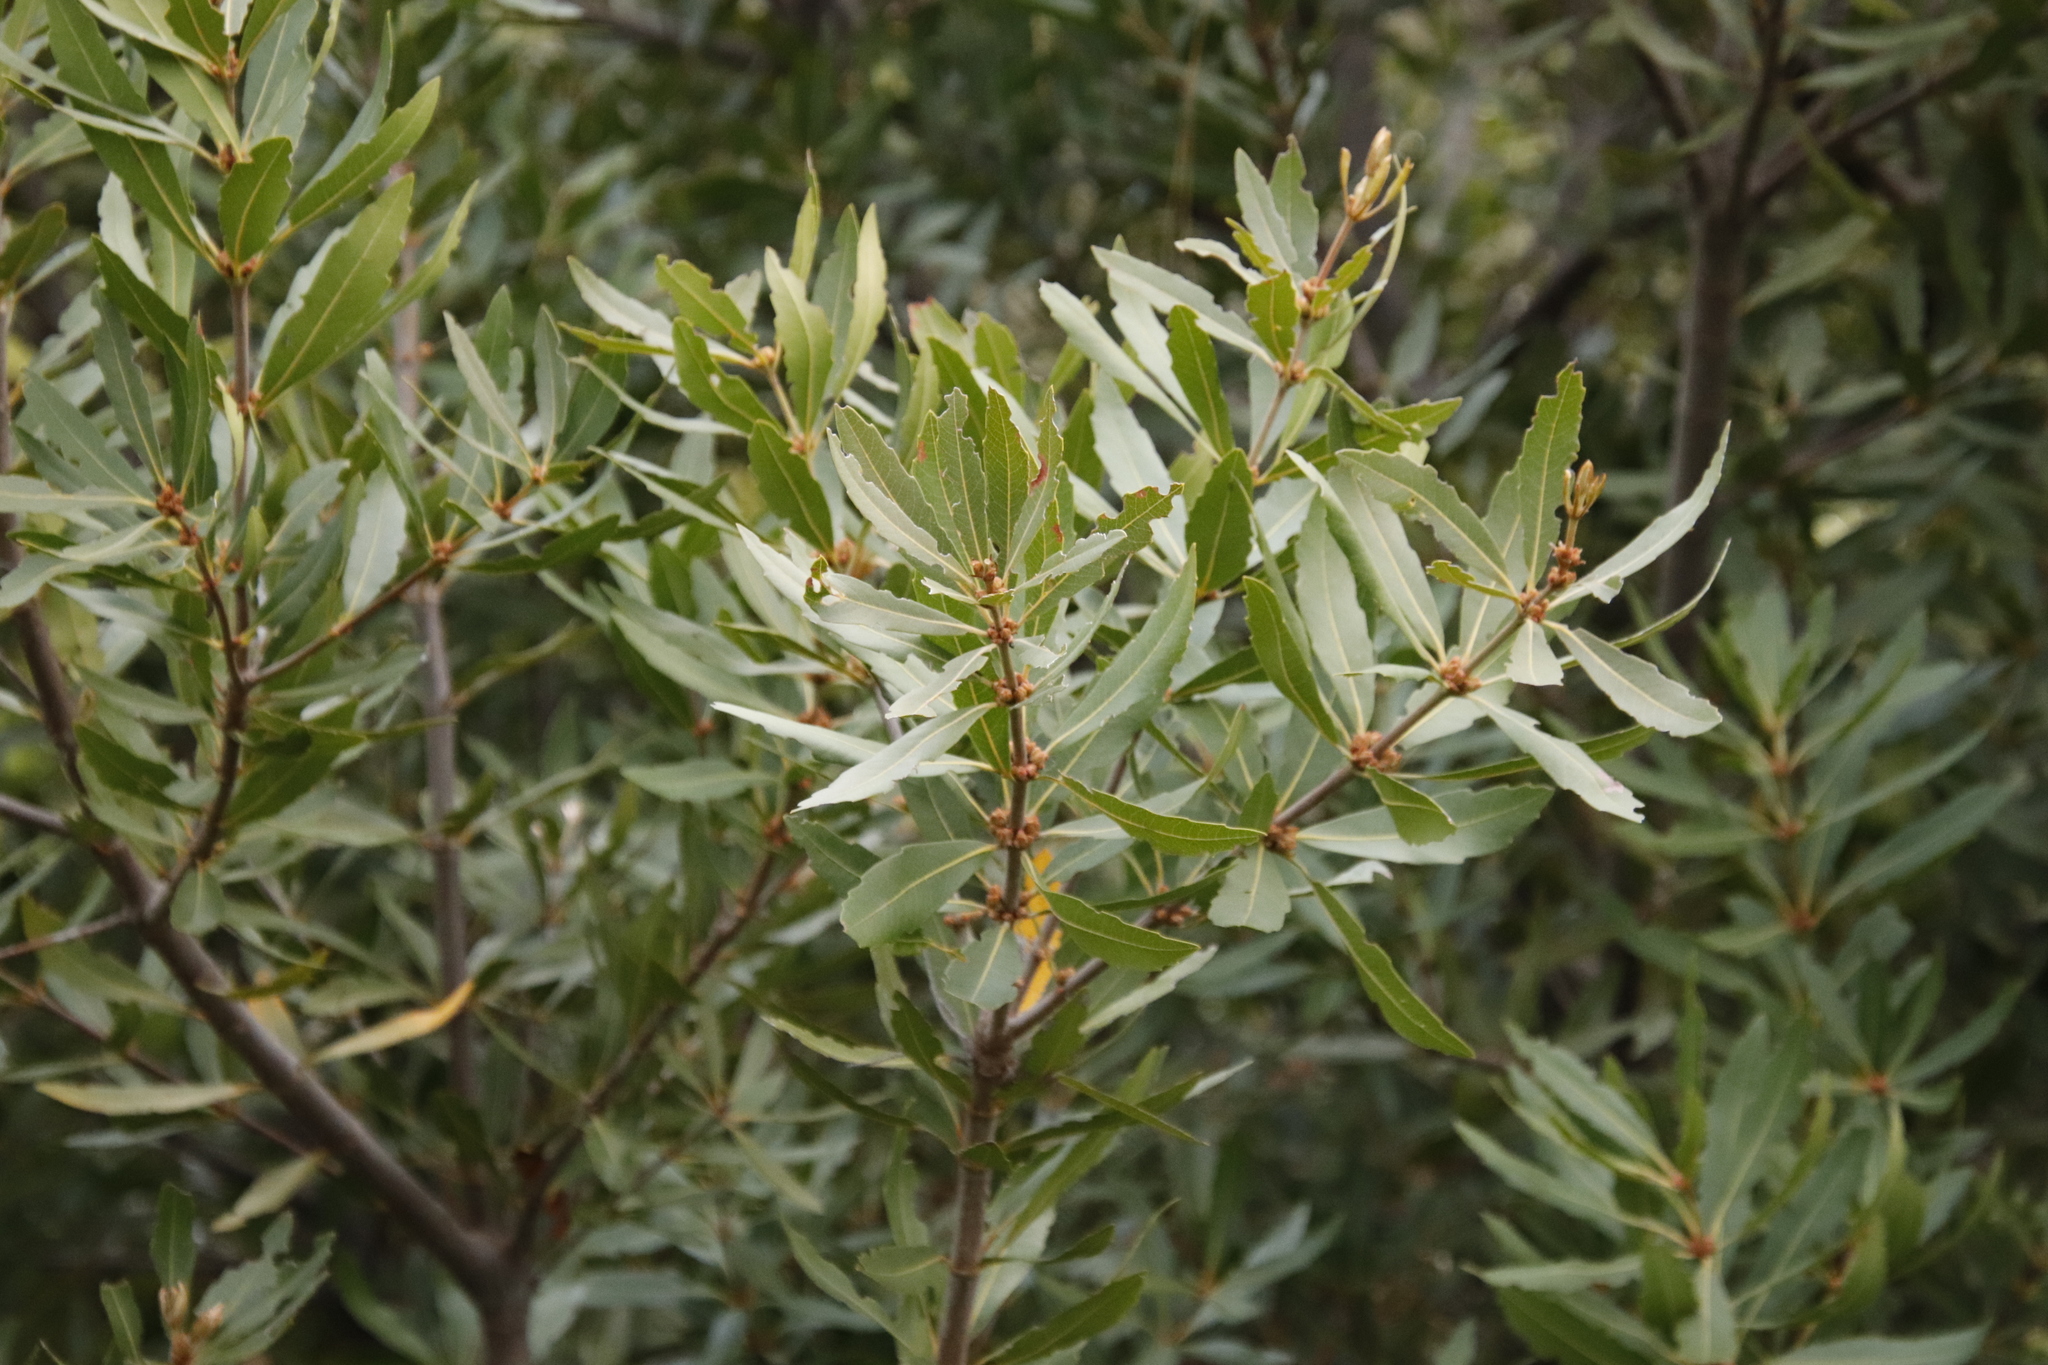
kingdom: Plantae
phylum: Tracheophyta
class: Magnoliopsida
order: Proteales
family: Proteaceae
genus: Brabejum
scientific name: Brabejum stellatifolium
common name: Wild almond
